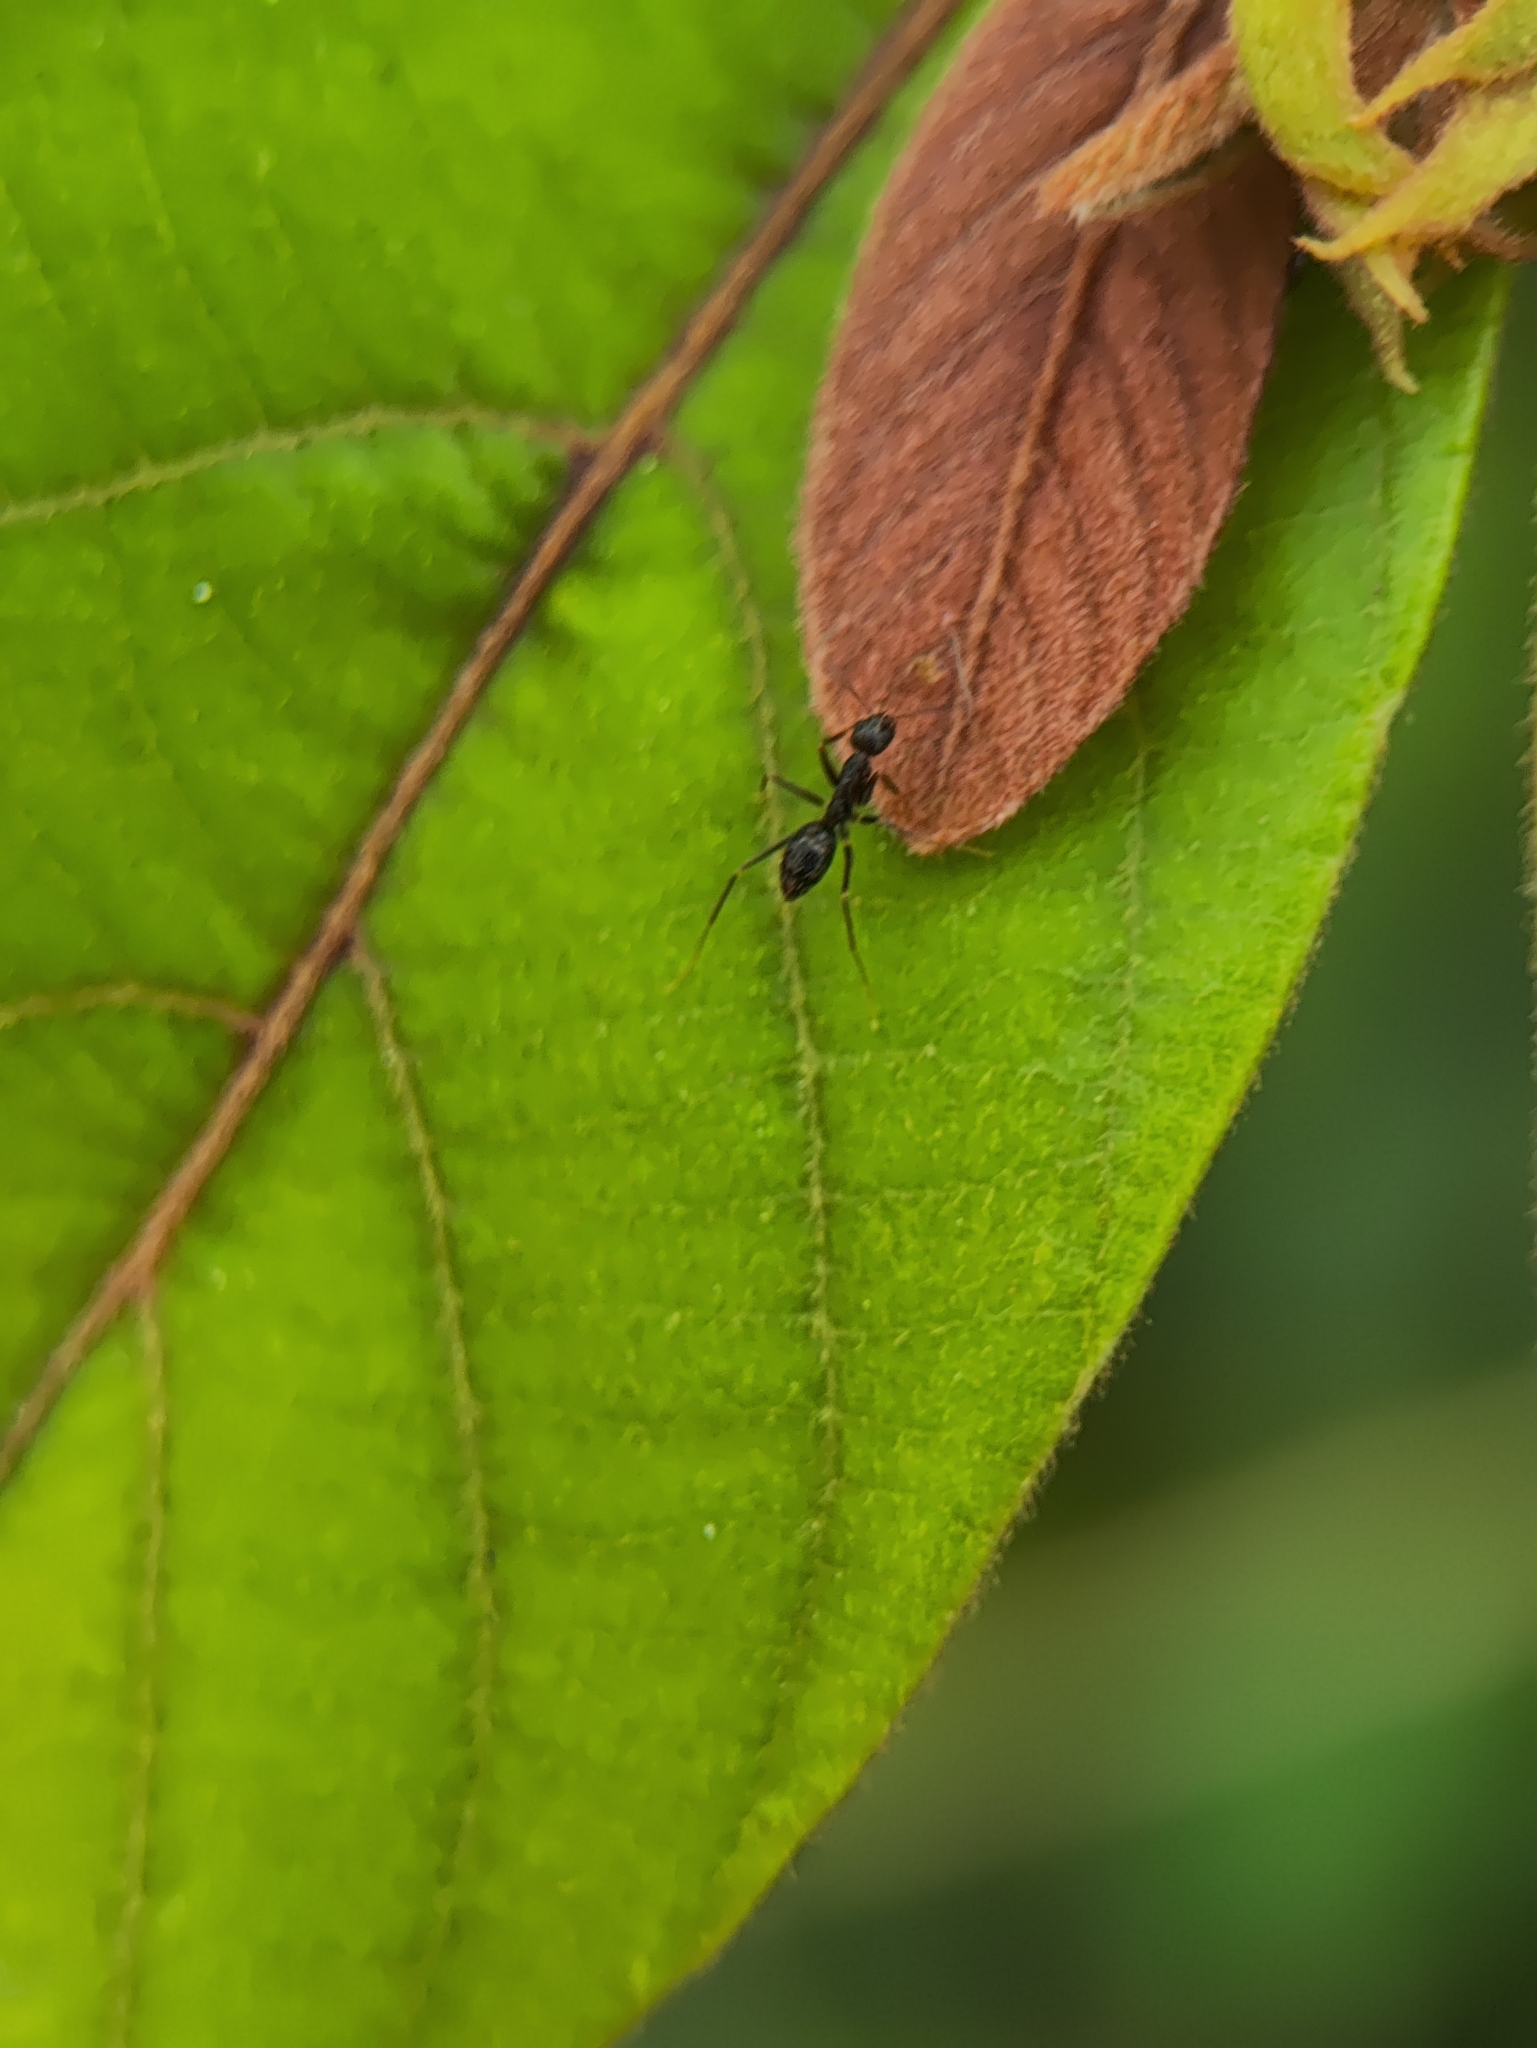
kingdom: Animalia
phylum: Arthropoda
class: Insecta
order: Hymenoptera
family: Formicidae
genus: Paratrechina
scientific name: Paratrechina longicornis
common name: Longhorned crazy ant
